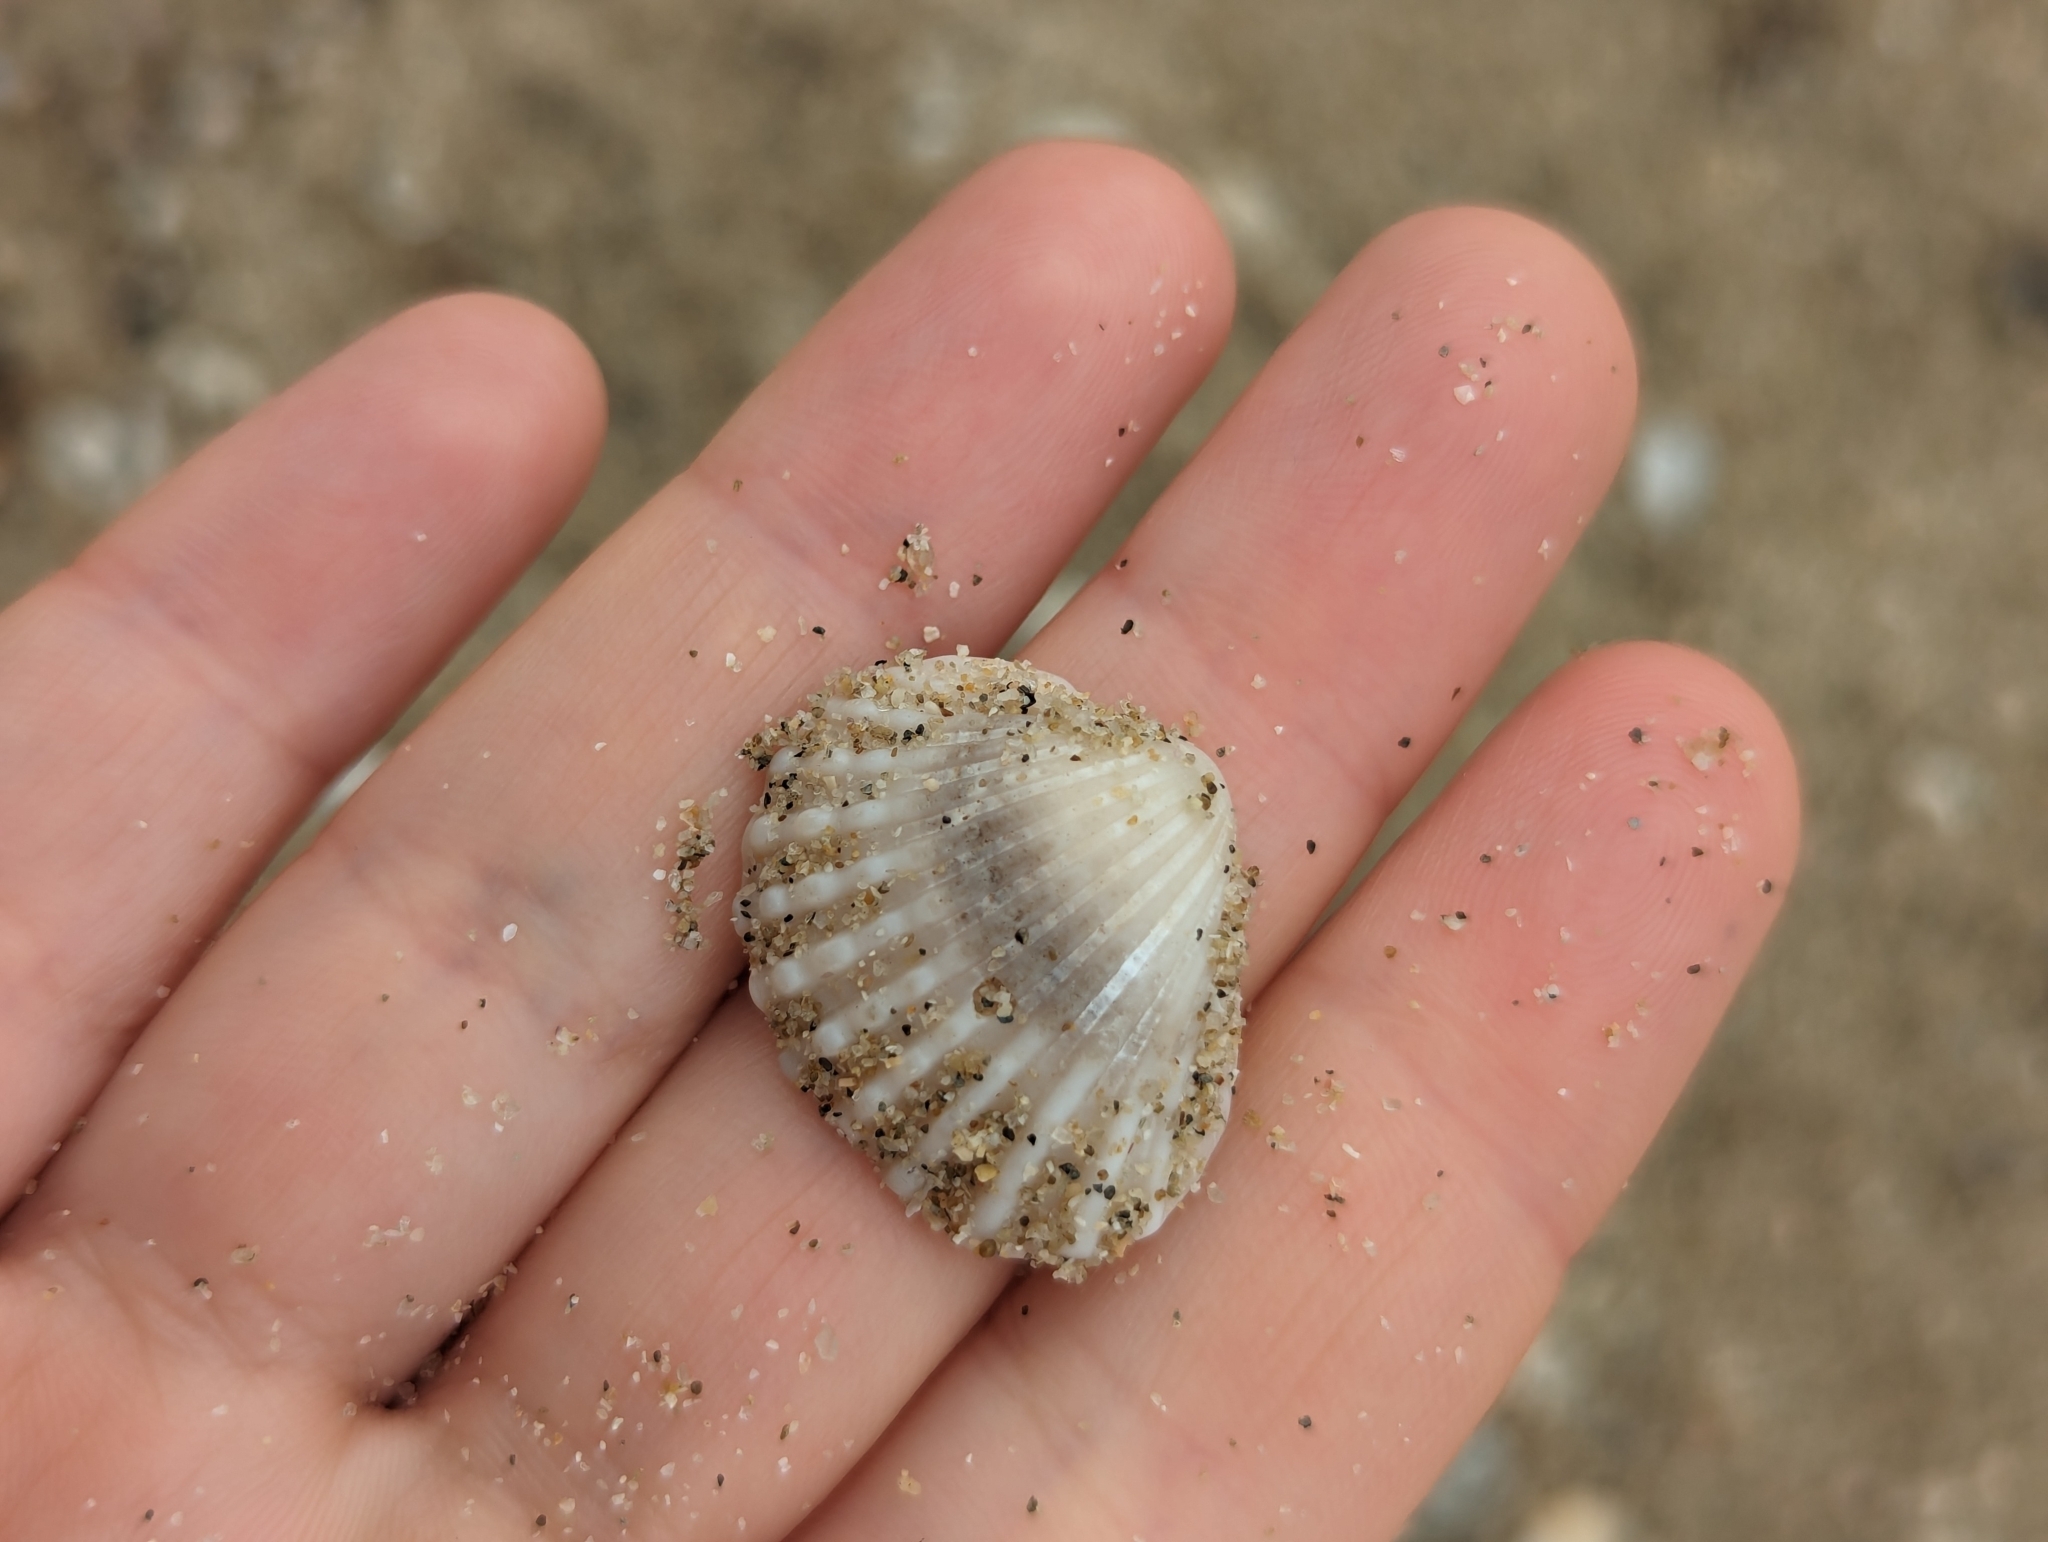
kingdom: Animalia
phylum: Mollusca
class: Bivalvia
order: Arcida
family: Arcidae
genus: Tegillarca
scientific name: Tegillarca granosa
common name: Blood clam
